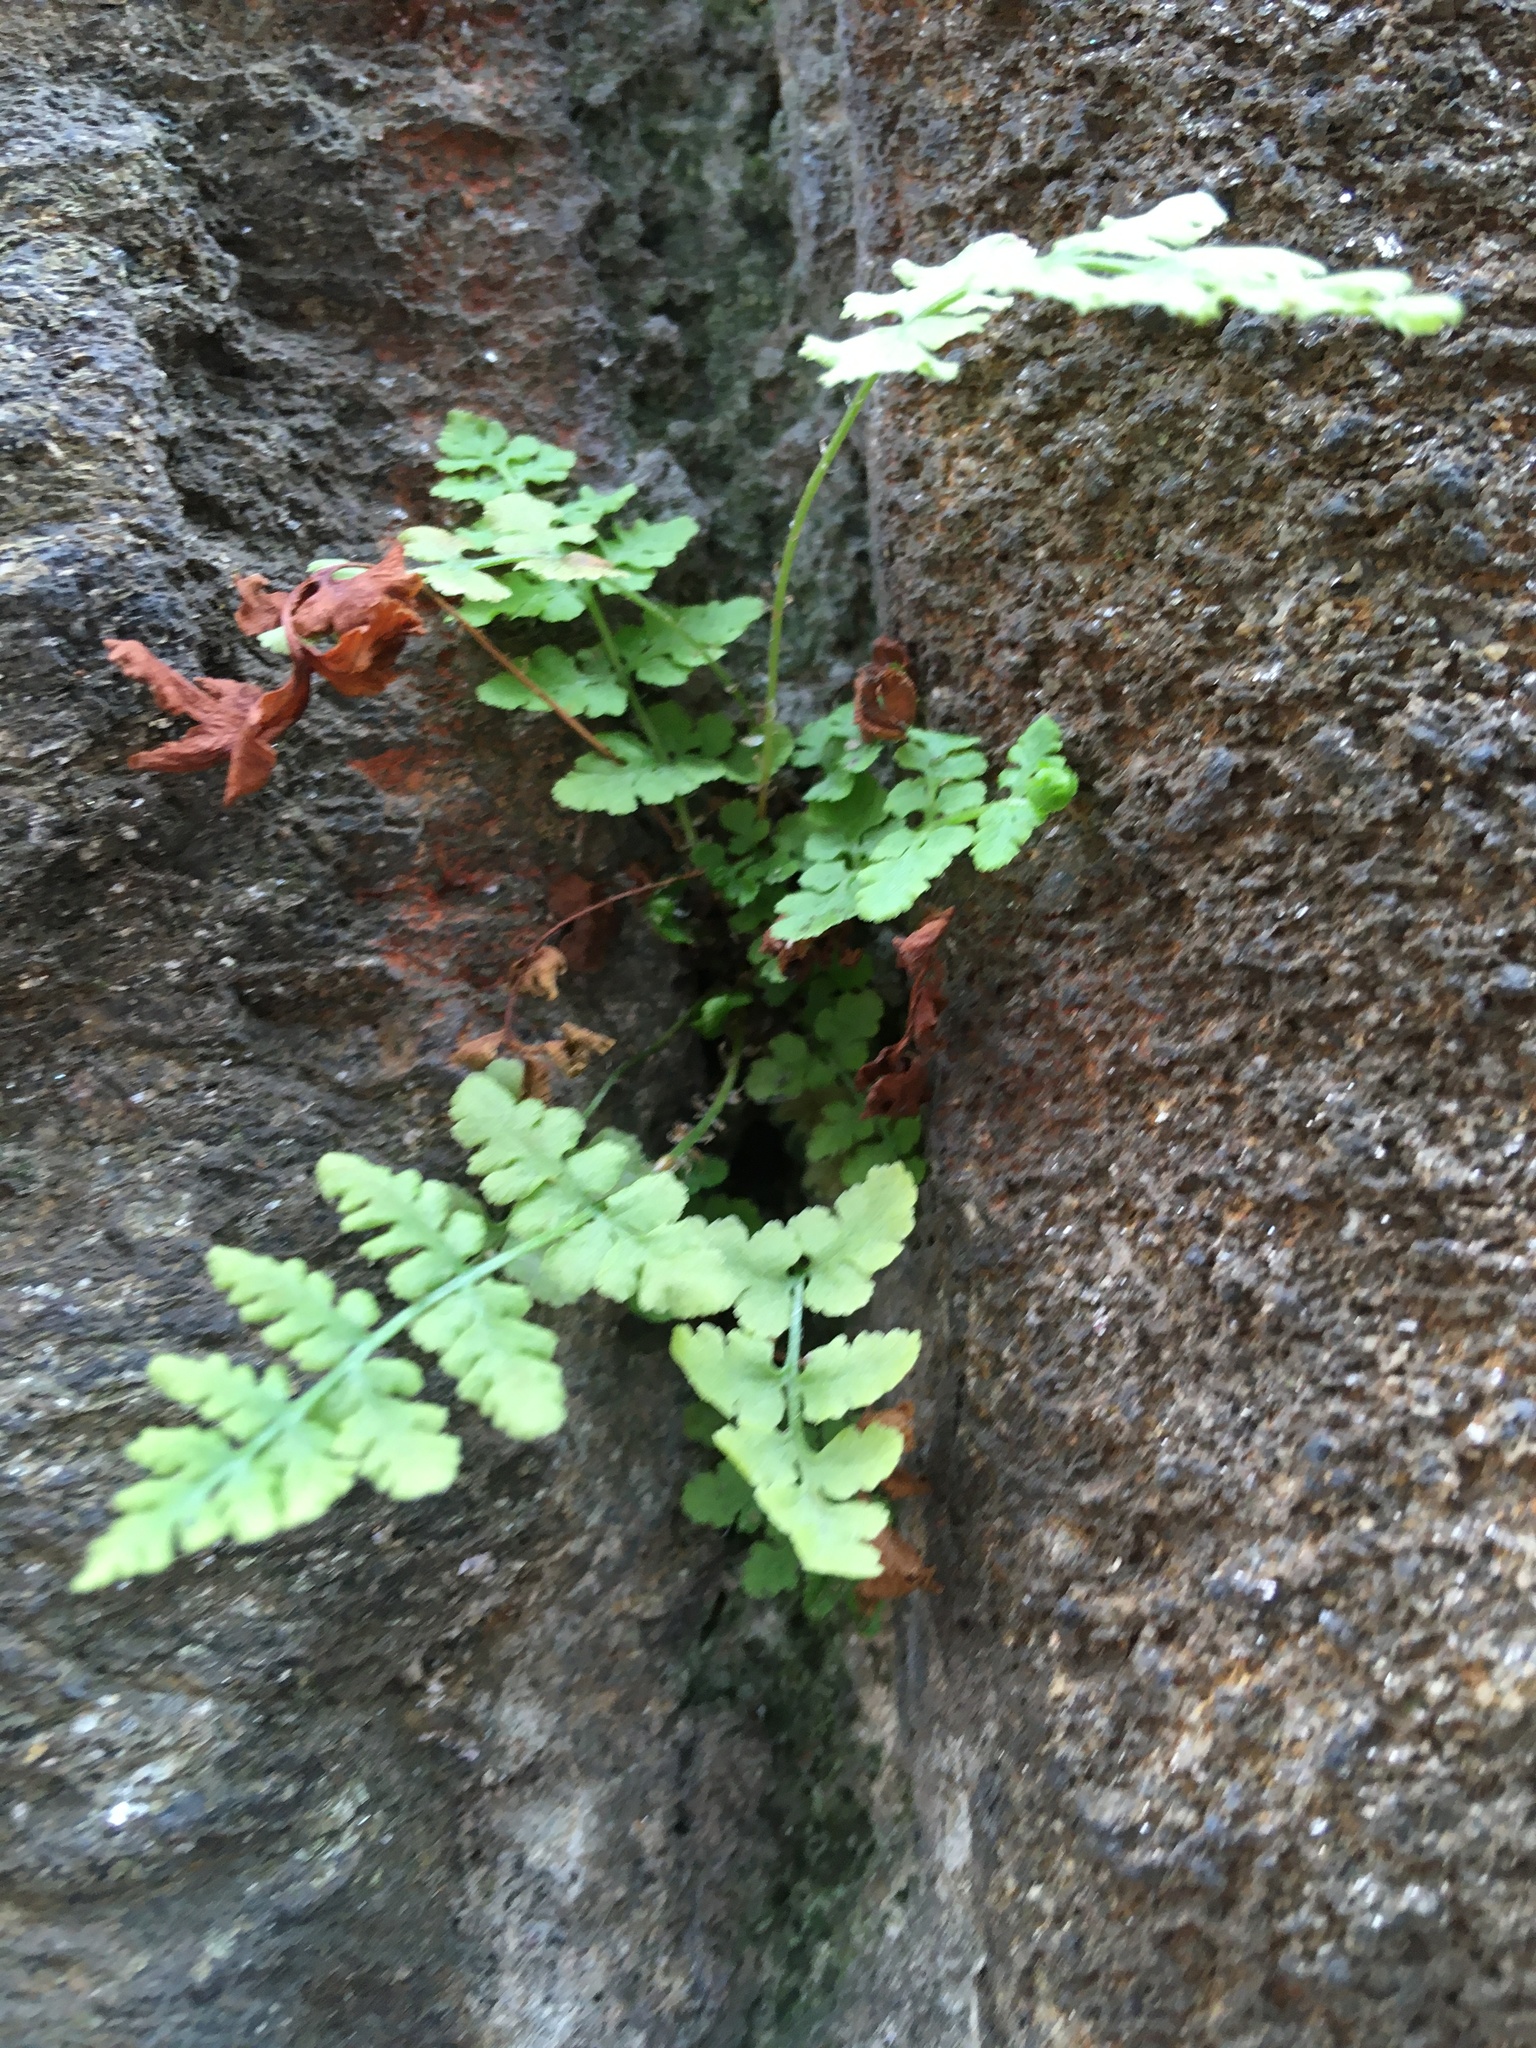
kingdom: Plantae
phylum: Tracheophyta
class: Polypodiopsida
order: Polypodiales
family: Woodsiaceae
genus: Physematium
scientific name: Physematium obtusum
